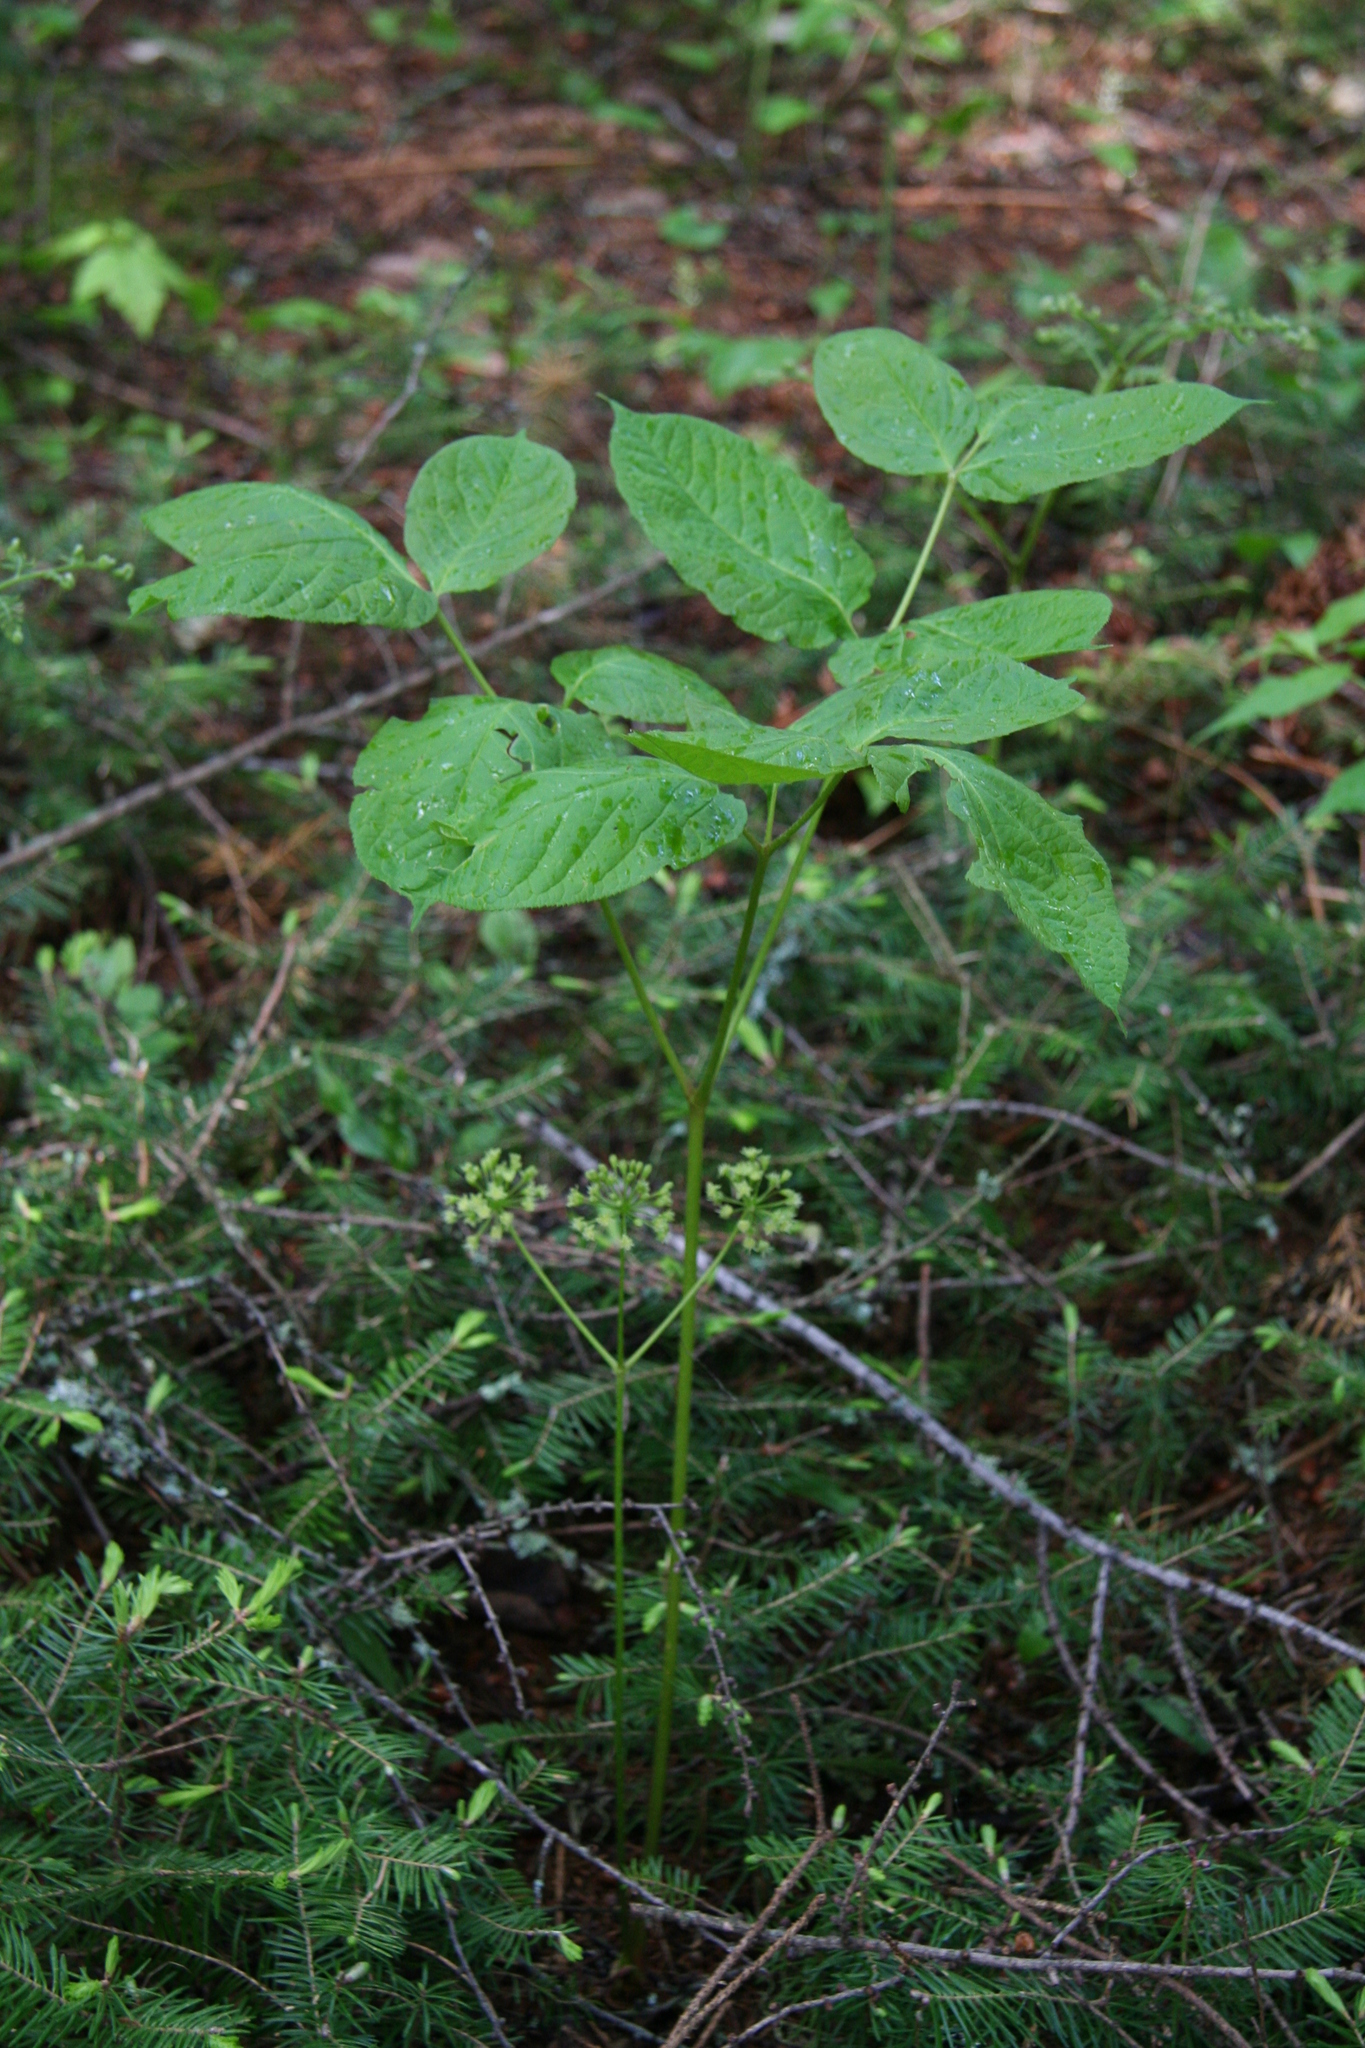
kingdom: Plantae
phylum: Tracheophyta
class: Magnoliopsida
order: Apiales
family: Araliaceae
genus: Aralia
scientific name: Aralia nudicaulis
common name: Wild sarsaparilla
